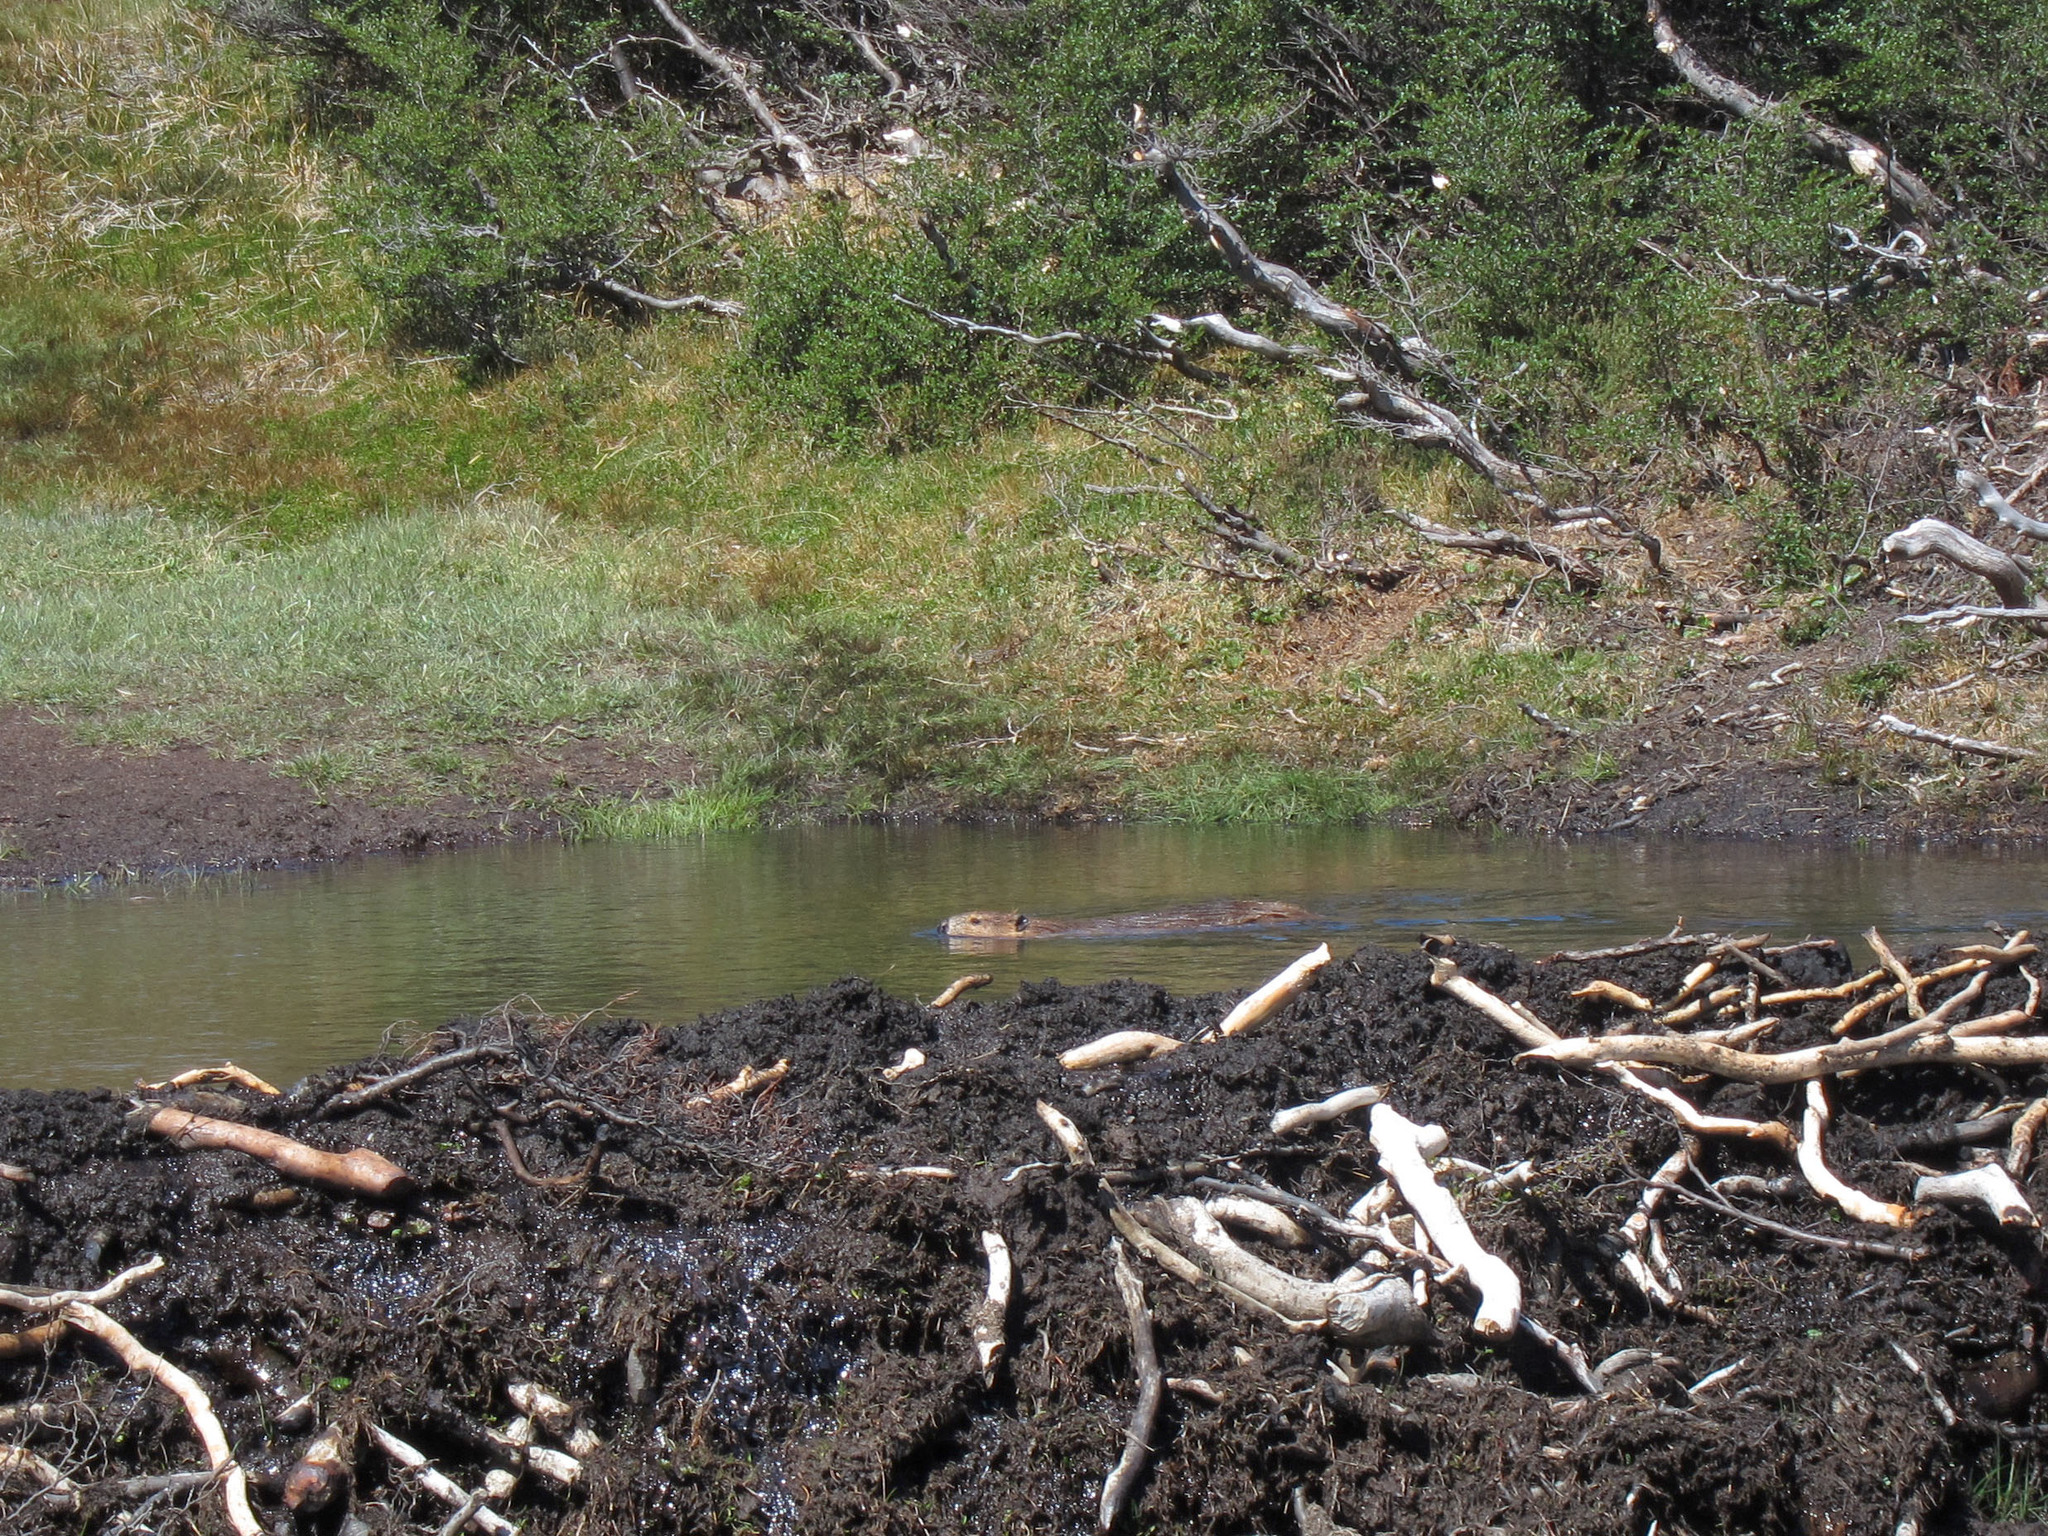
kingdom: Animalia
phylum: Chordata
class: Mammalia
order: Rodentia
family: Castoridae
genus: Castor
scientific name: Castor canadensis
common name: American beaver
